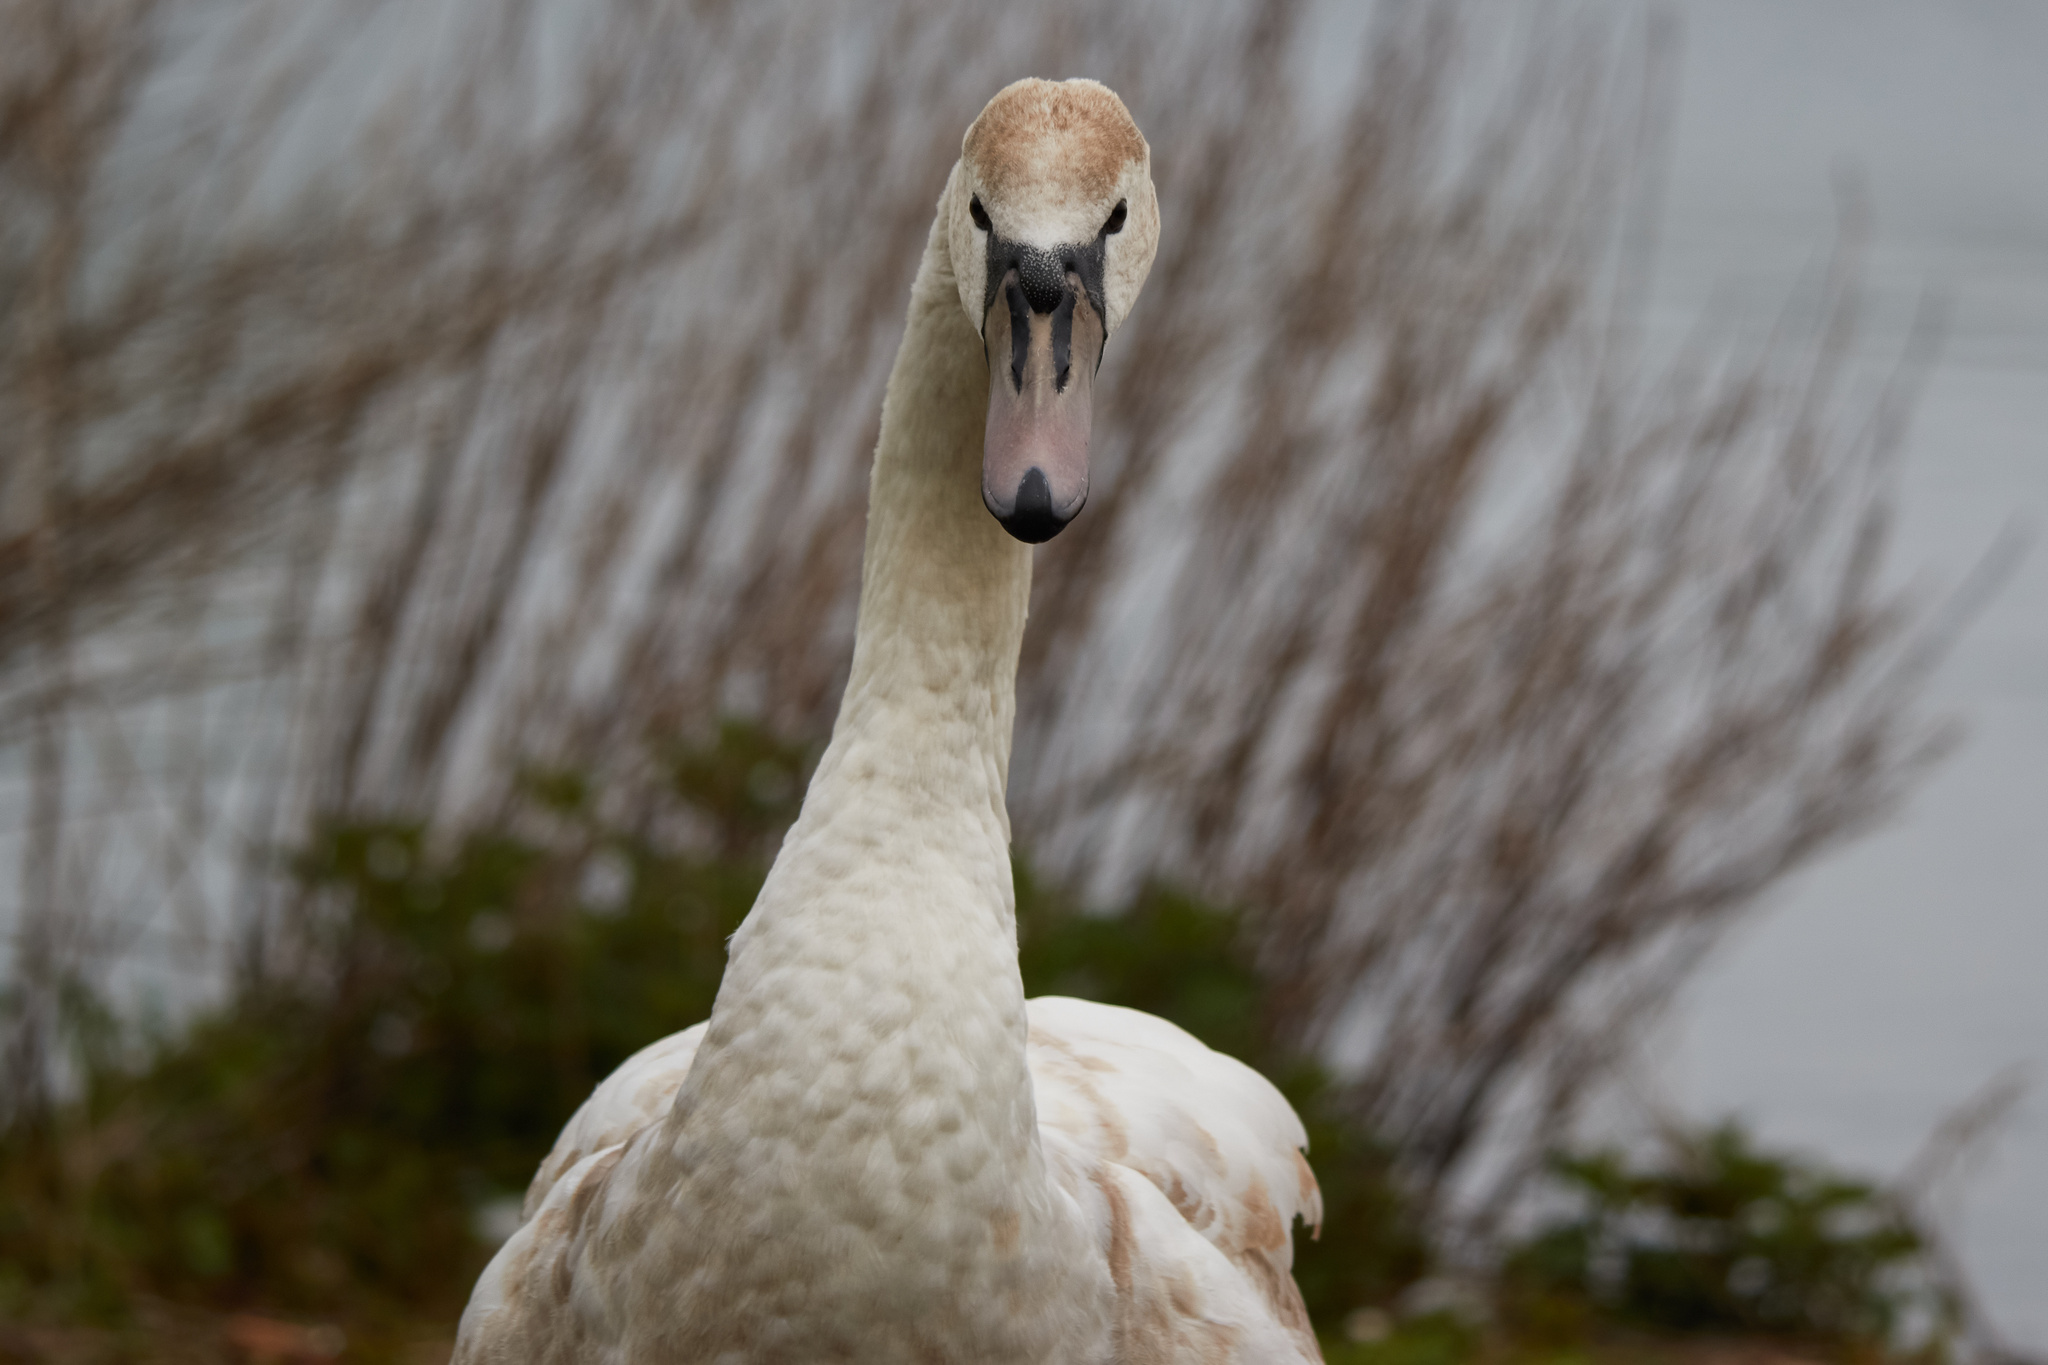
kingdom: Animalia
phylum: Chordata
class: Aves
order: Anseriformes
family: Anatidae
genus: Cygnus
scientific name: Cygnus olor
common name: Mute swan
